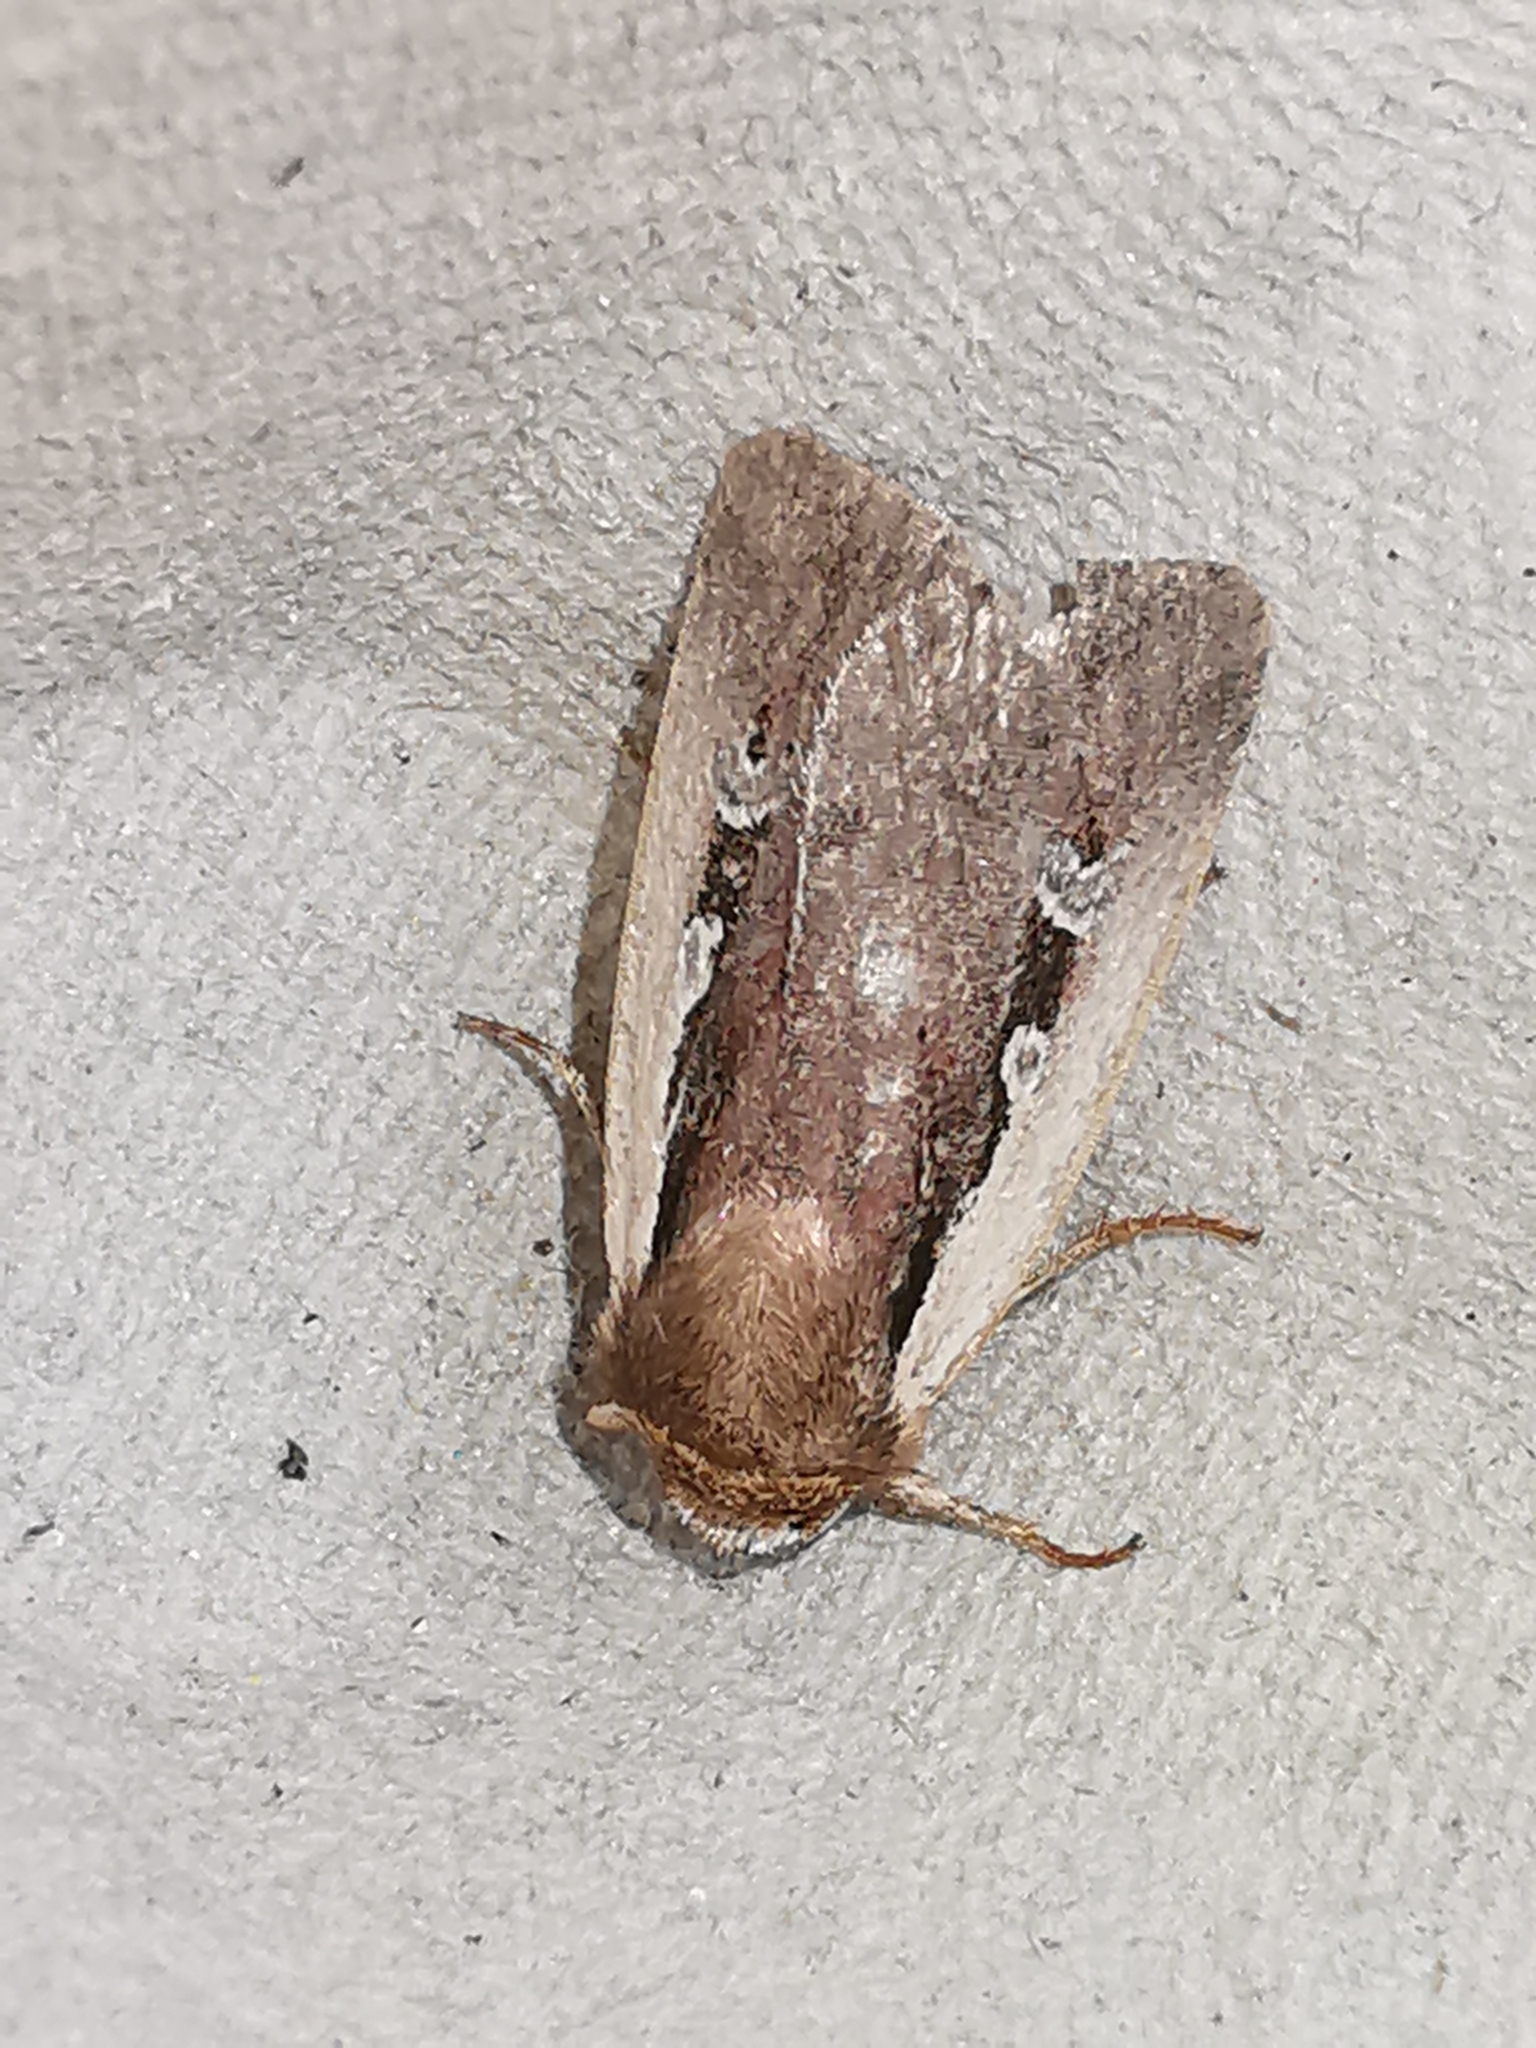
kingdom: Animalia
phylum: Arthropoda
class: Insecta
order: Lepidoptera
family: Noctuidae
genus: Ochropleura
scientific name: Ochropleura plecta
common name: Flame shoulder
